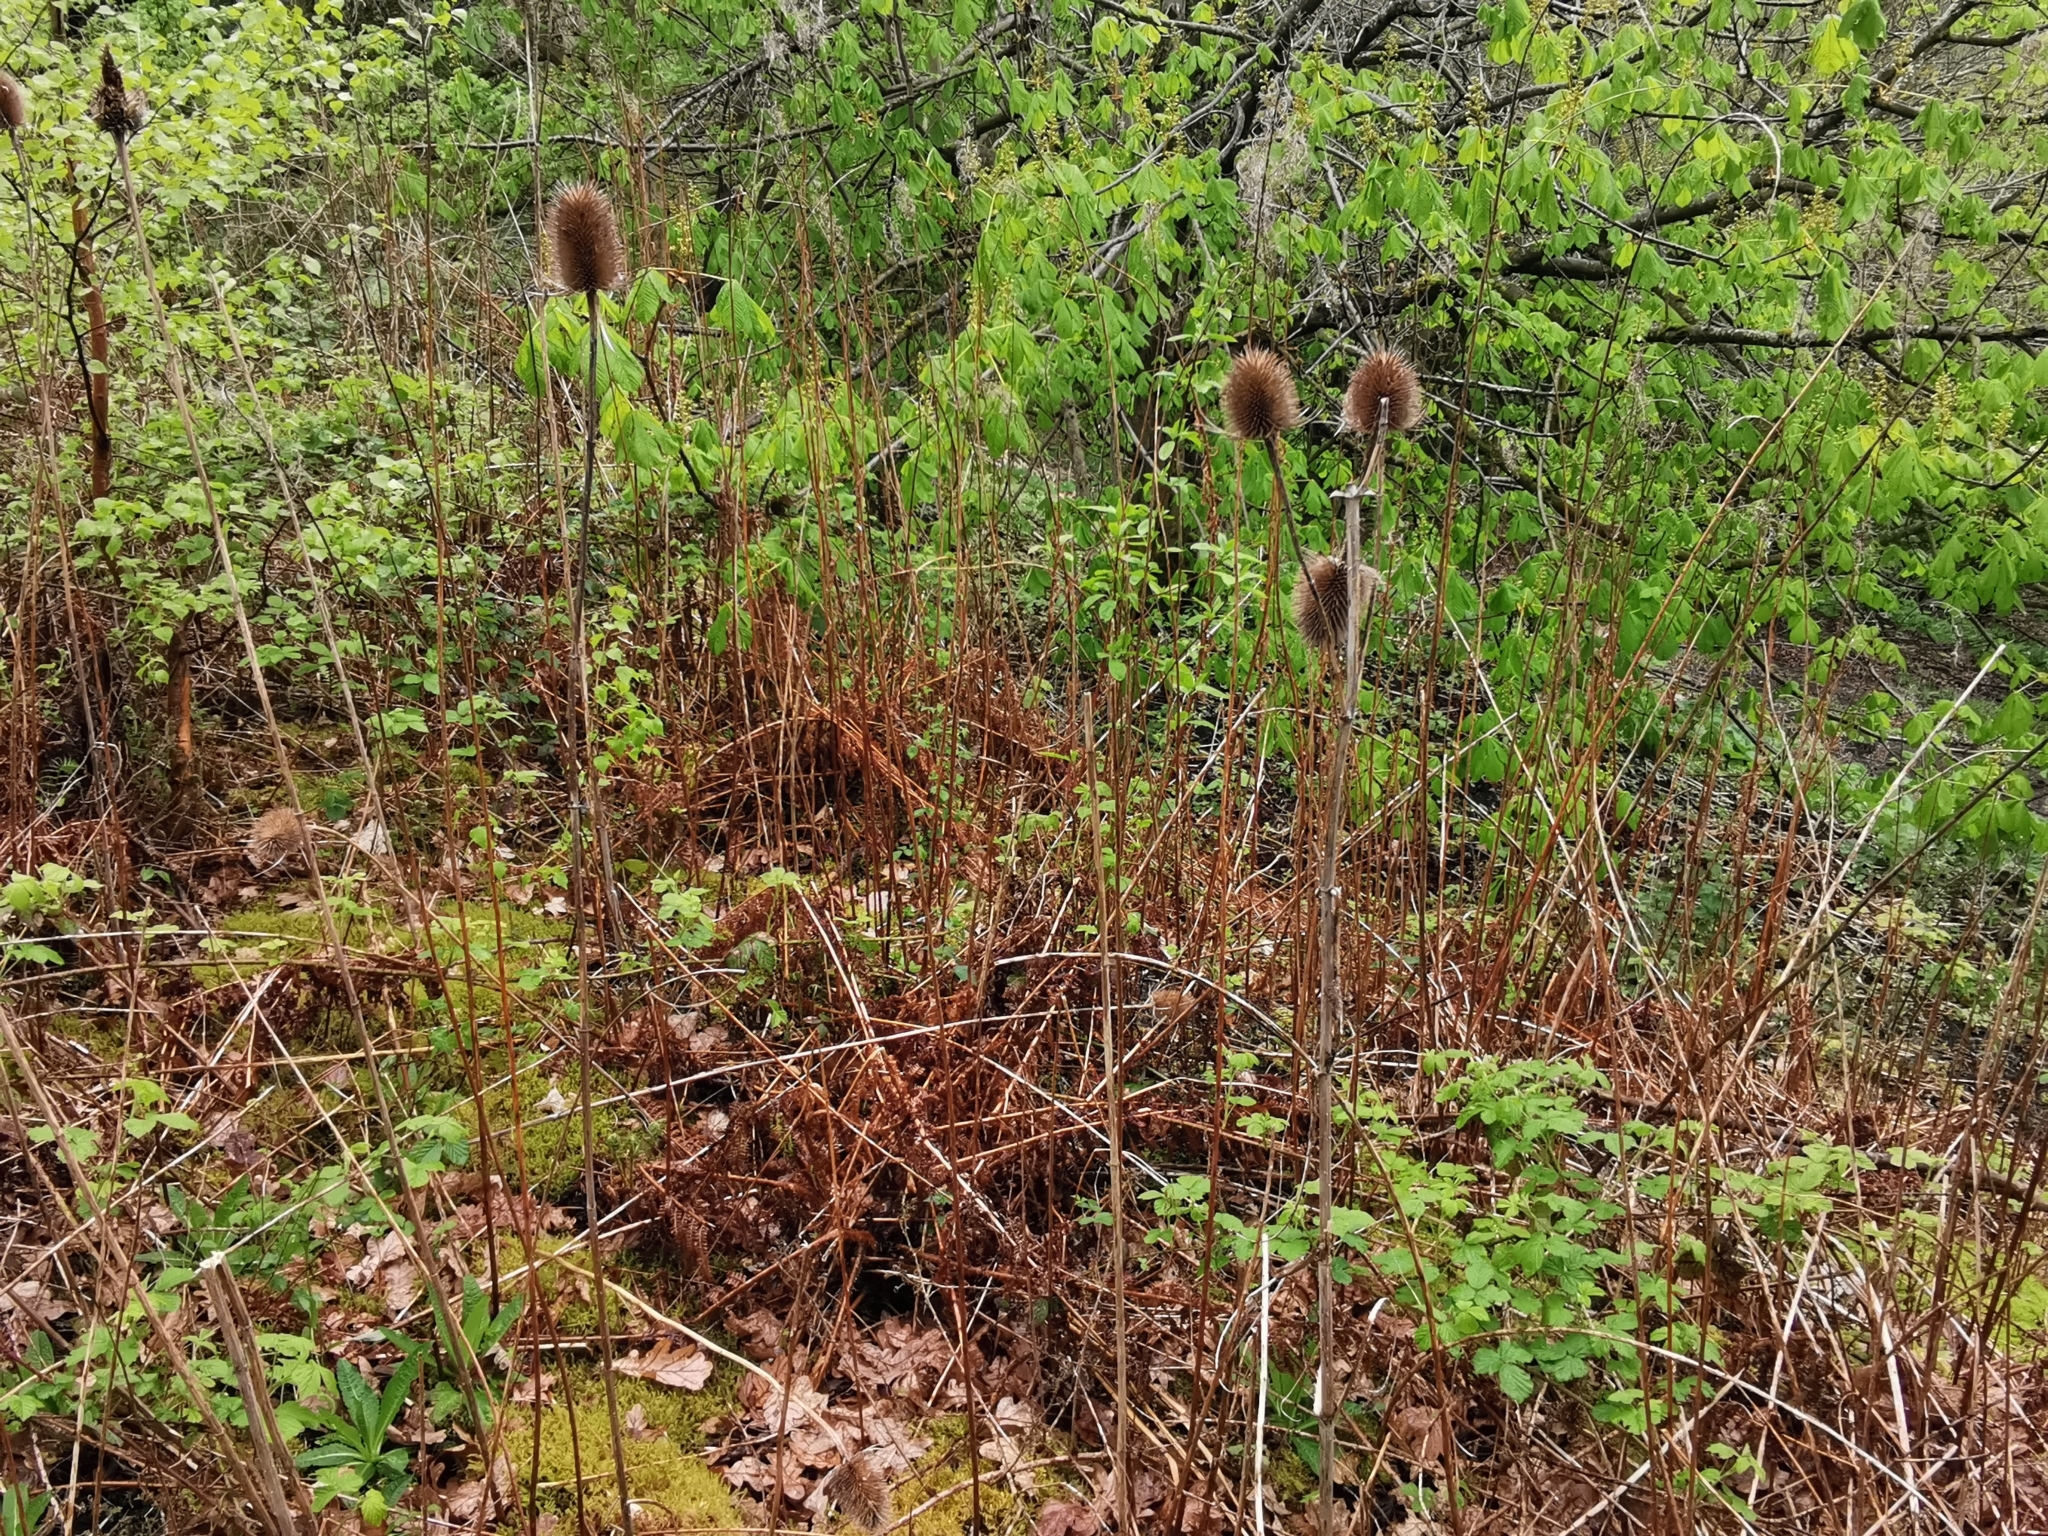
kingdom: Plantae
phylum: Tracheophyta
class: Magnoliopsida
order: Dipsacales
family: Caprifoliaceae
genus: Dipsacus
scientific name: Dipsacus fullonum
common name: Teasel
